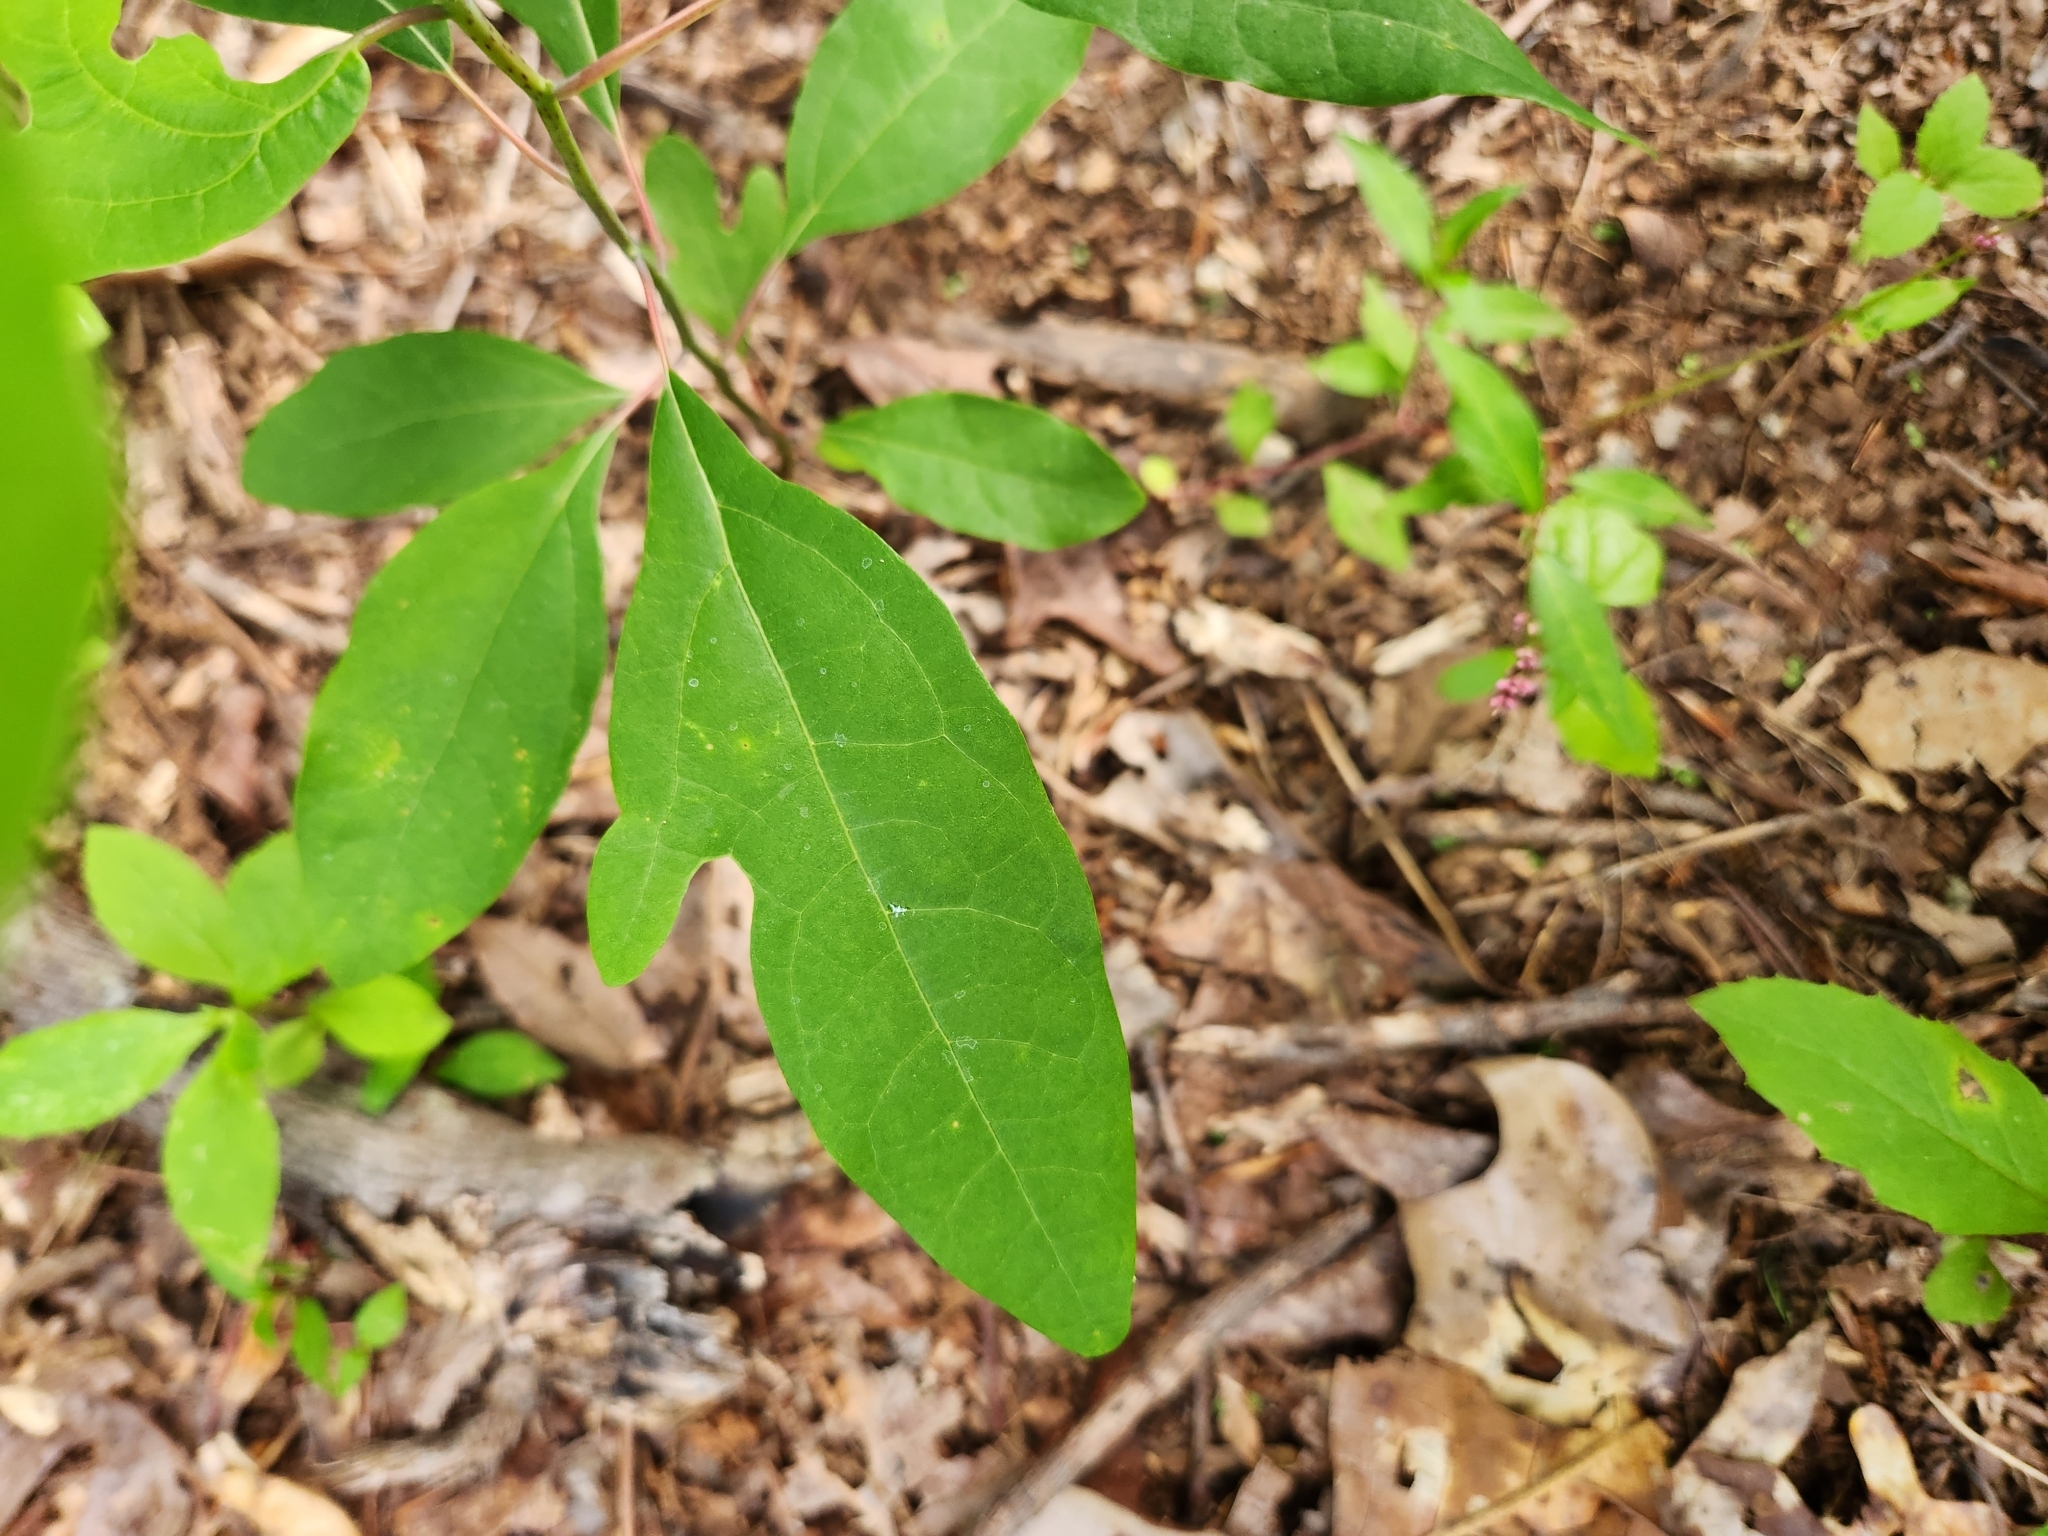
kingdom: Plantae
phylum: Tracheophyta
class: Magnoliopsida
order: Laurales
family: Lauraceae
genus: Sassafras
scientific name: Sassafras albidum
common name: Sassafras
